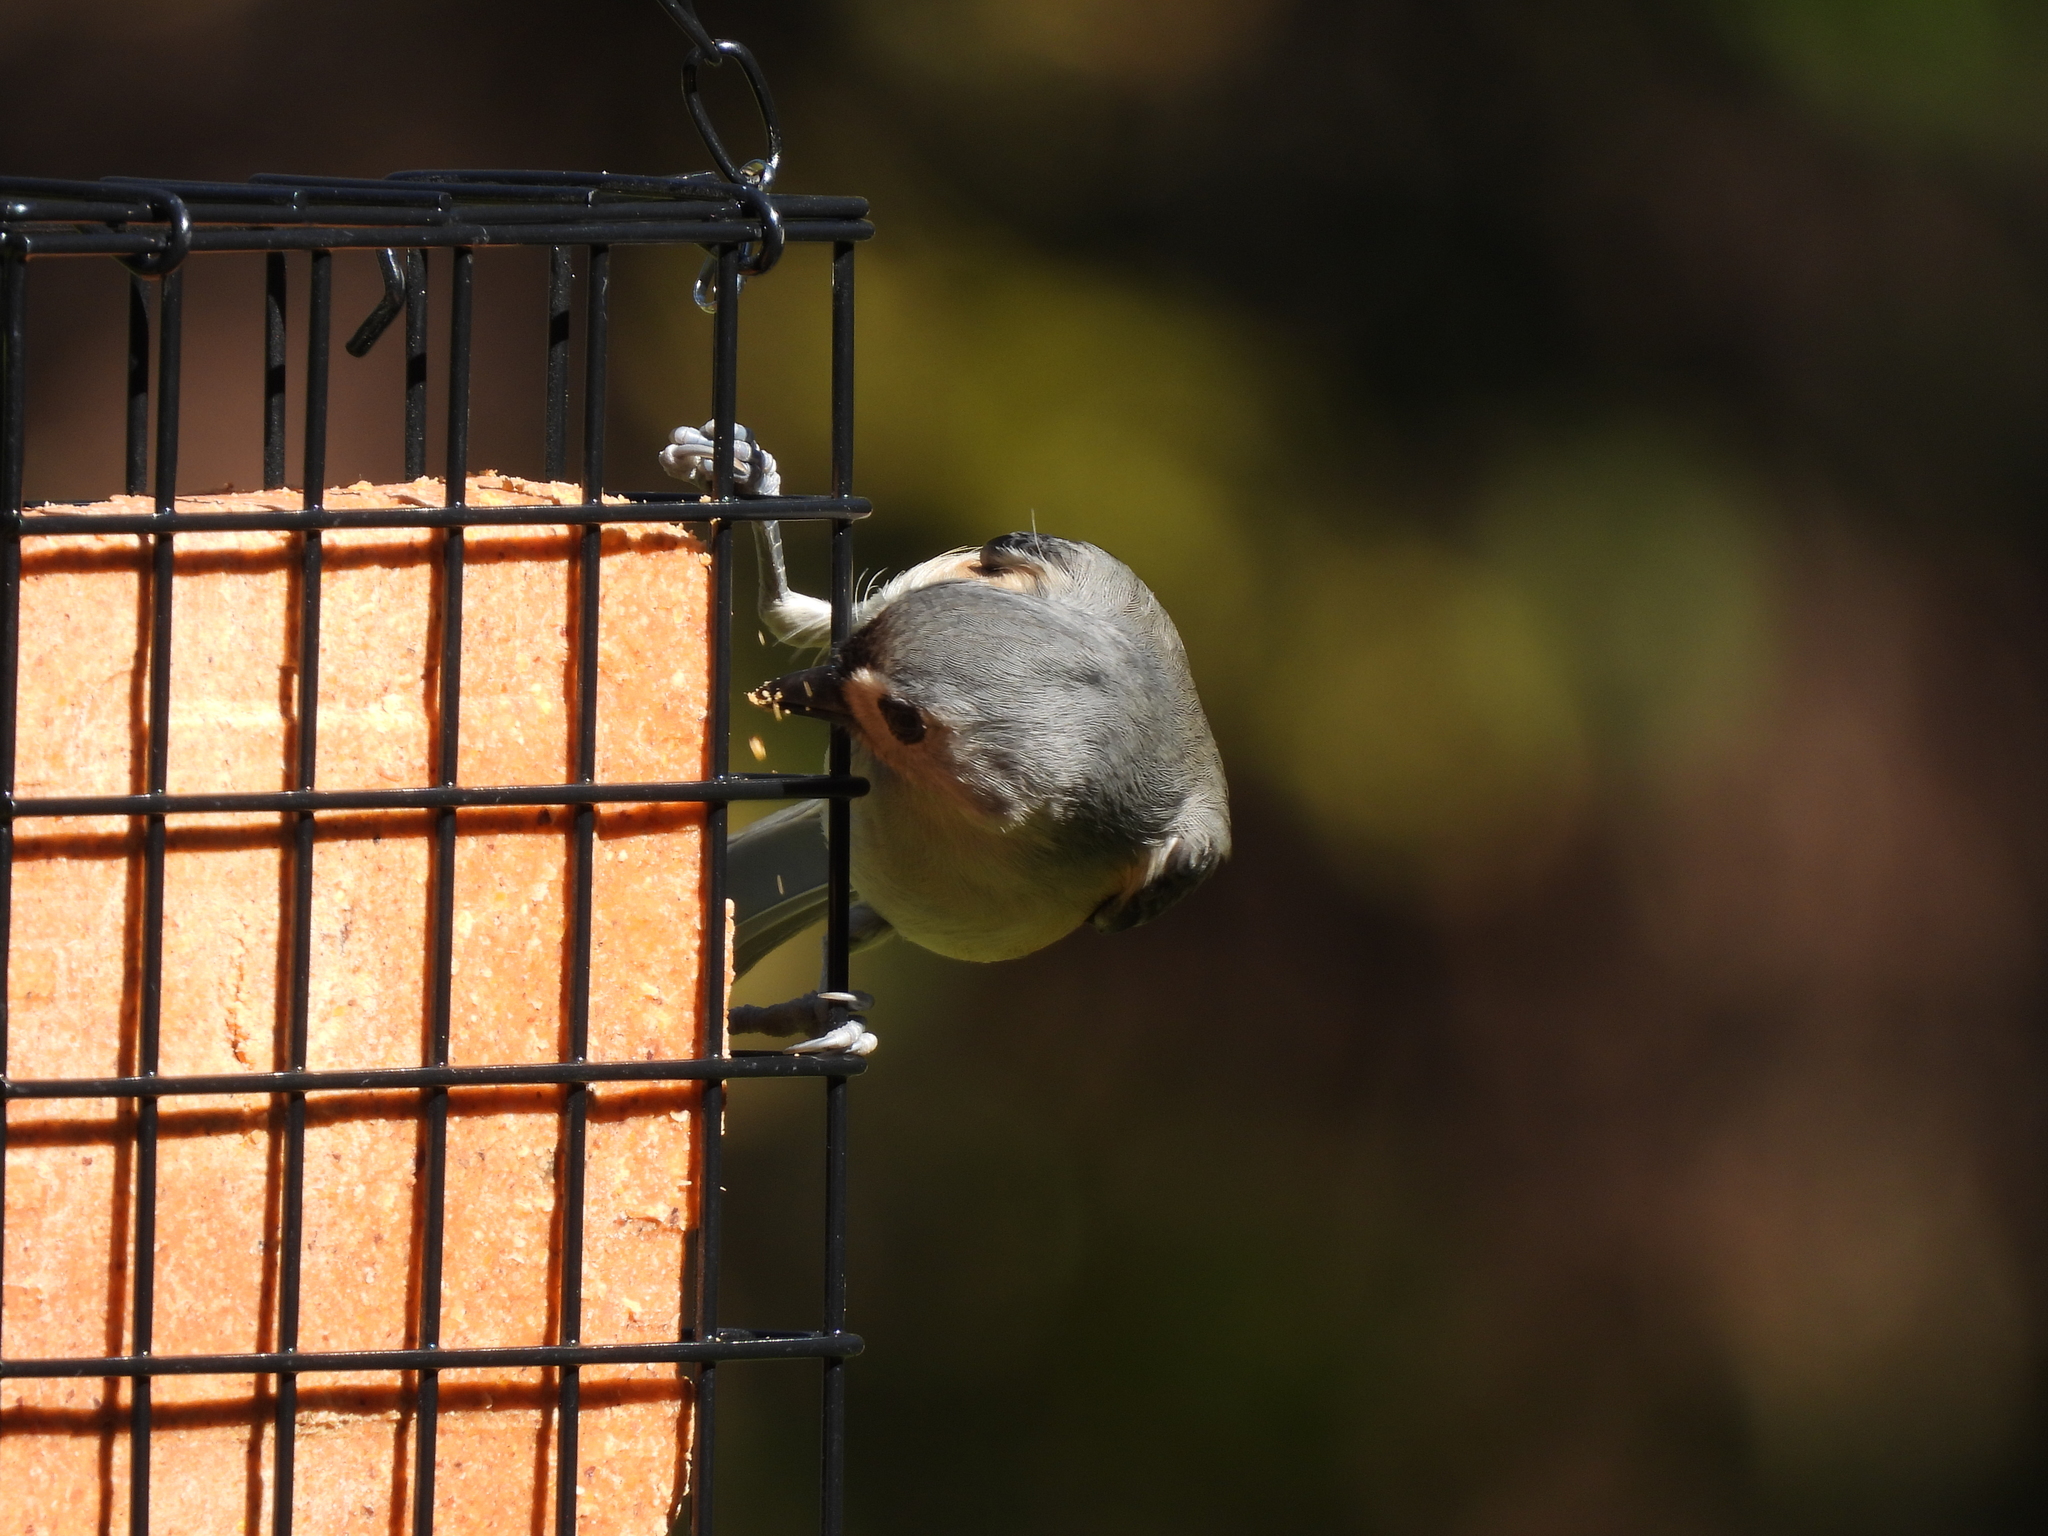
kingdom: Animalia
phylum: Chordata
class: Aves
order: Passeriformes
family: Paridae
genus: Baeolophus
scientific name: Baeolophus bicolor
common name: Tufted titmouse
